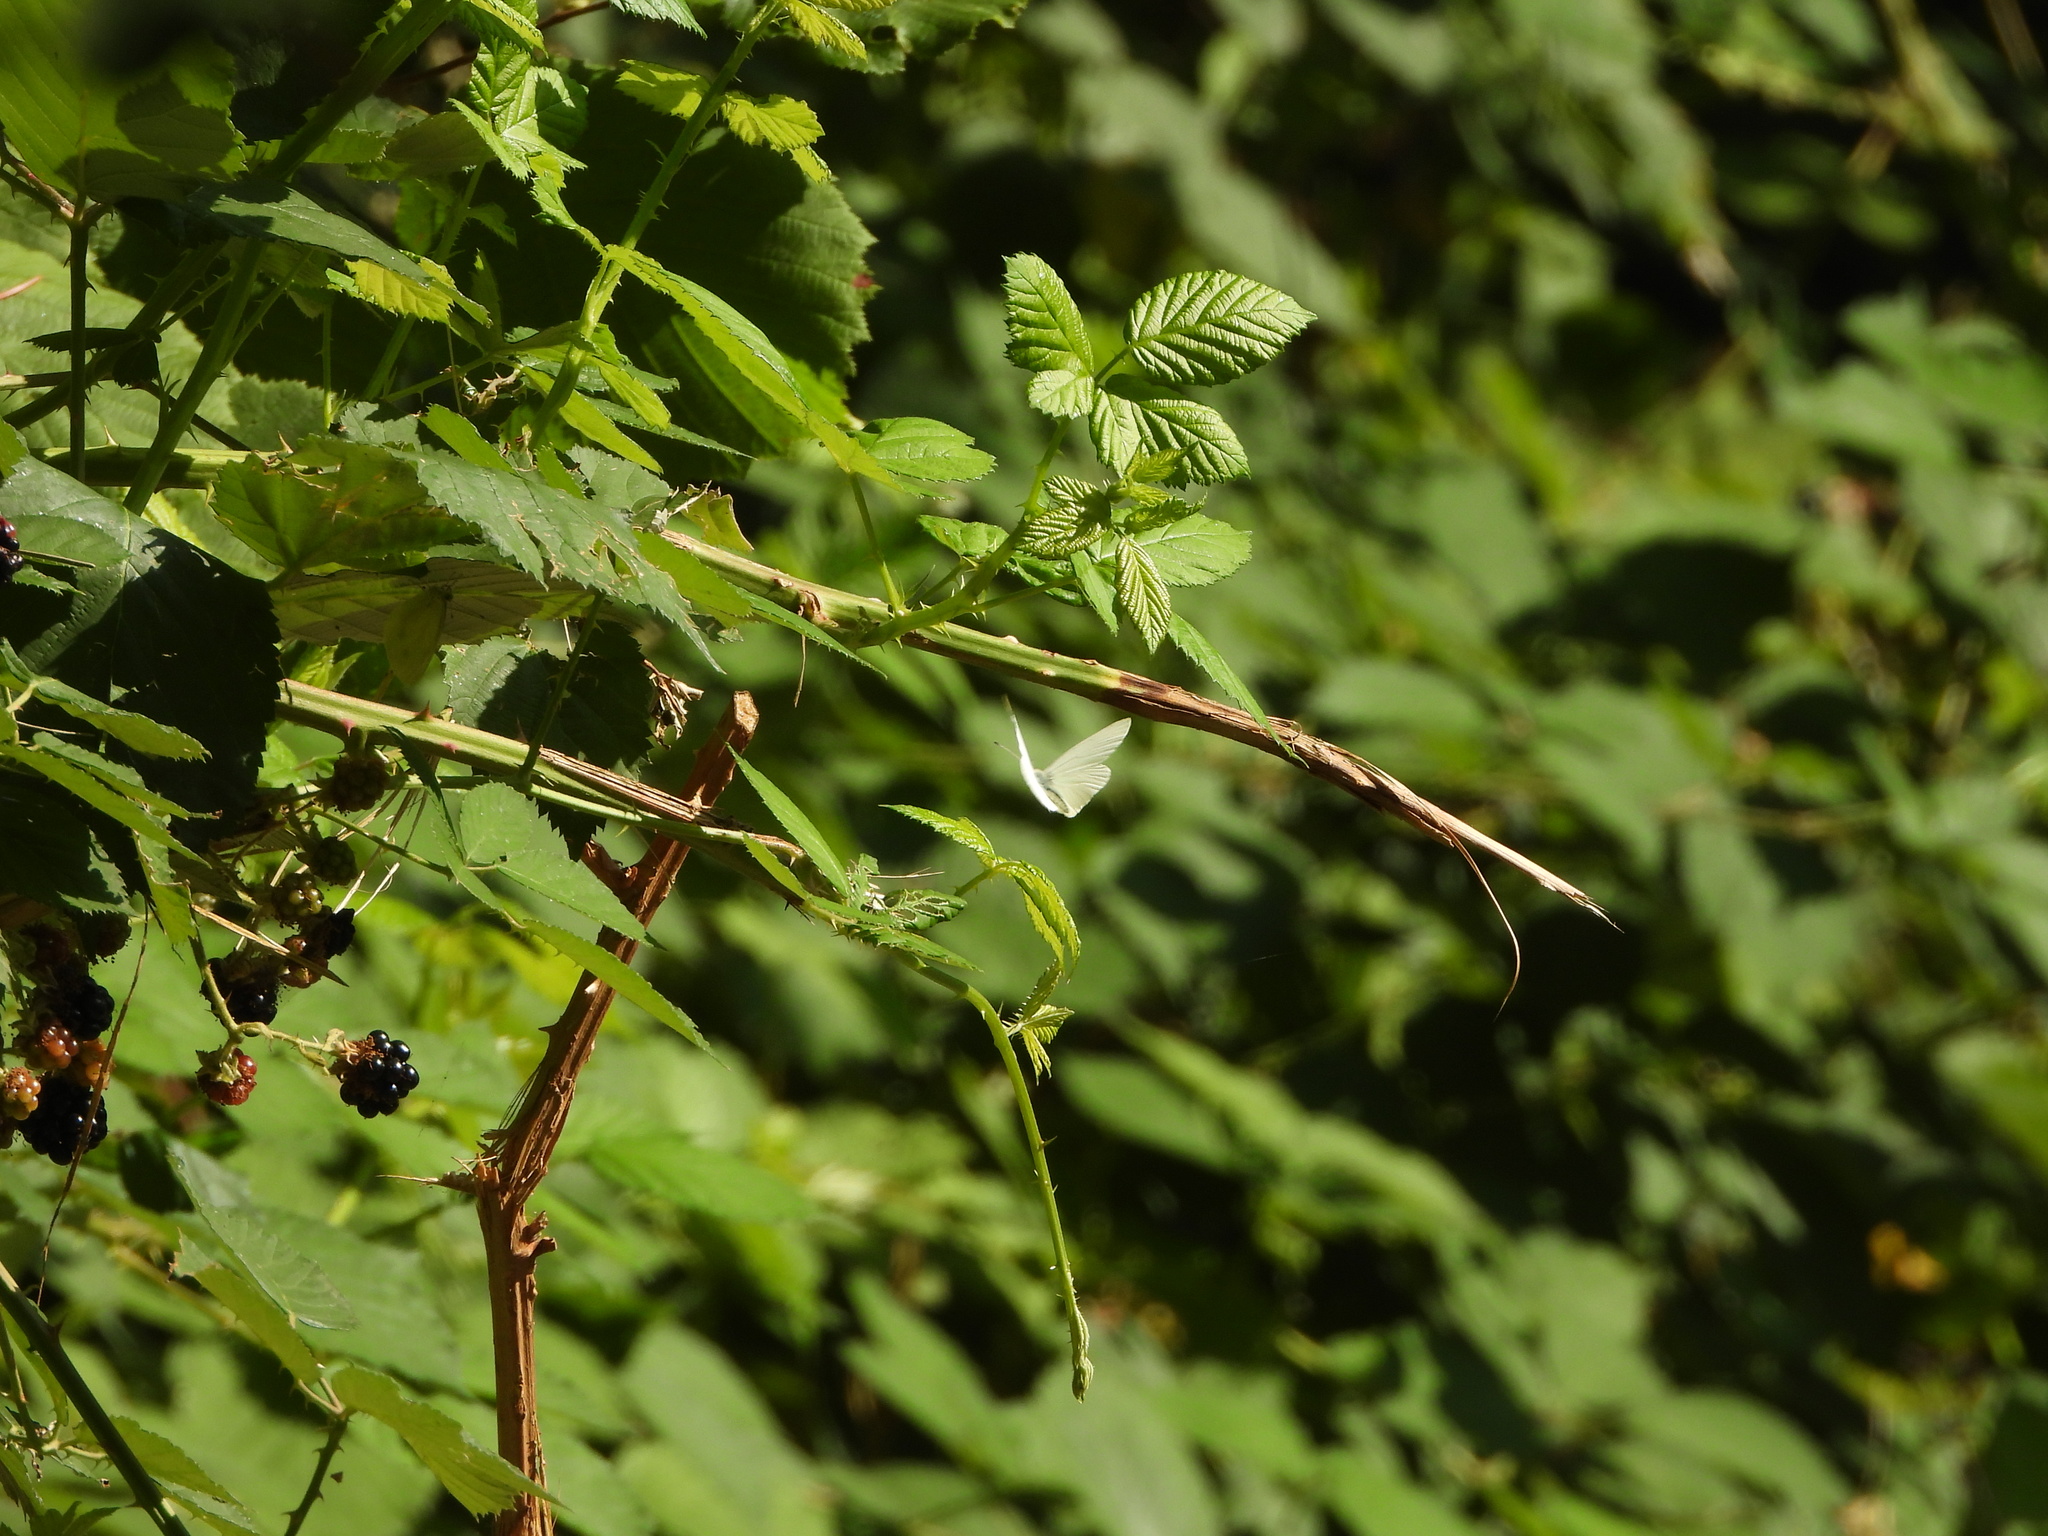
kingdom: Animalia
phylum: Arthropoda
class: Insecta
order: Lepidoptera
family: Pieridae
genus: Pieris
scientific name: Pieris marginalis
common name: Margined white
